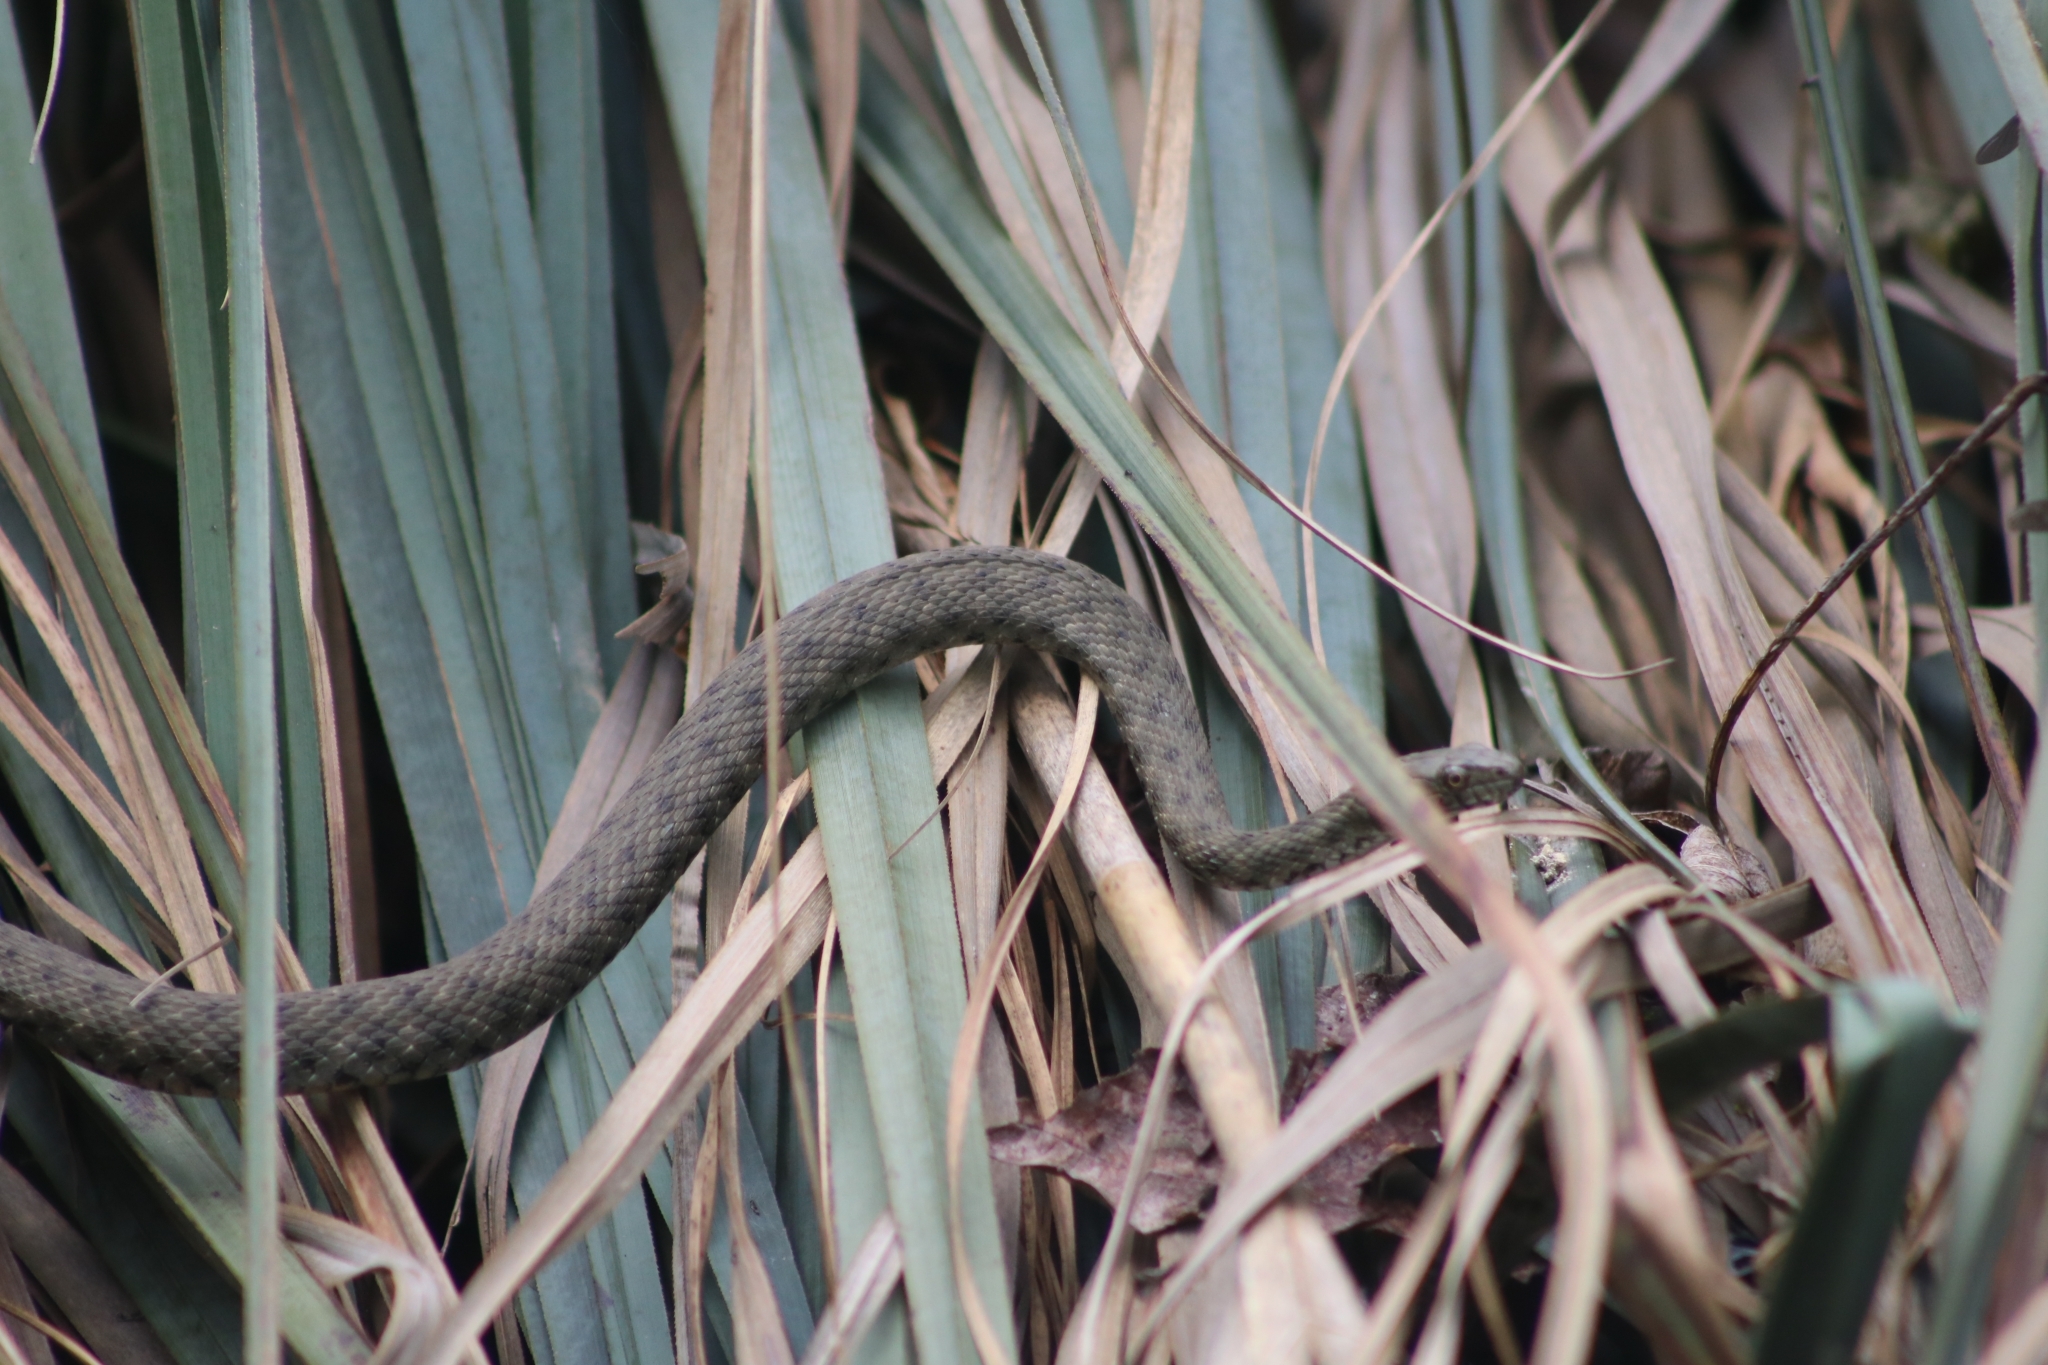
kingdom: Animalia
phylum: Chordata
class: Squamata
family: Colubridae
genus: Natrix
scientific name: Natrix tessellata
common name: Dice snake
